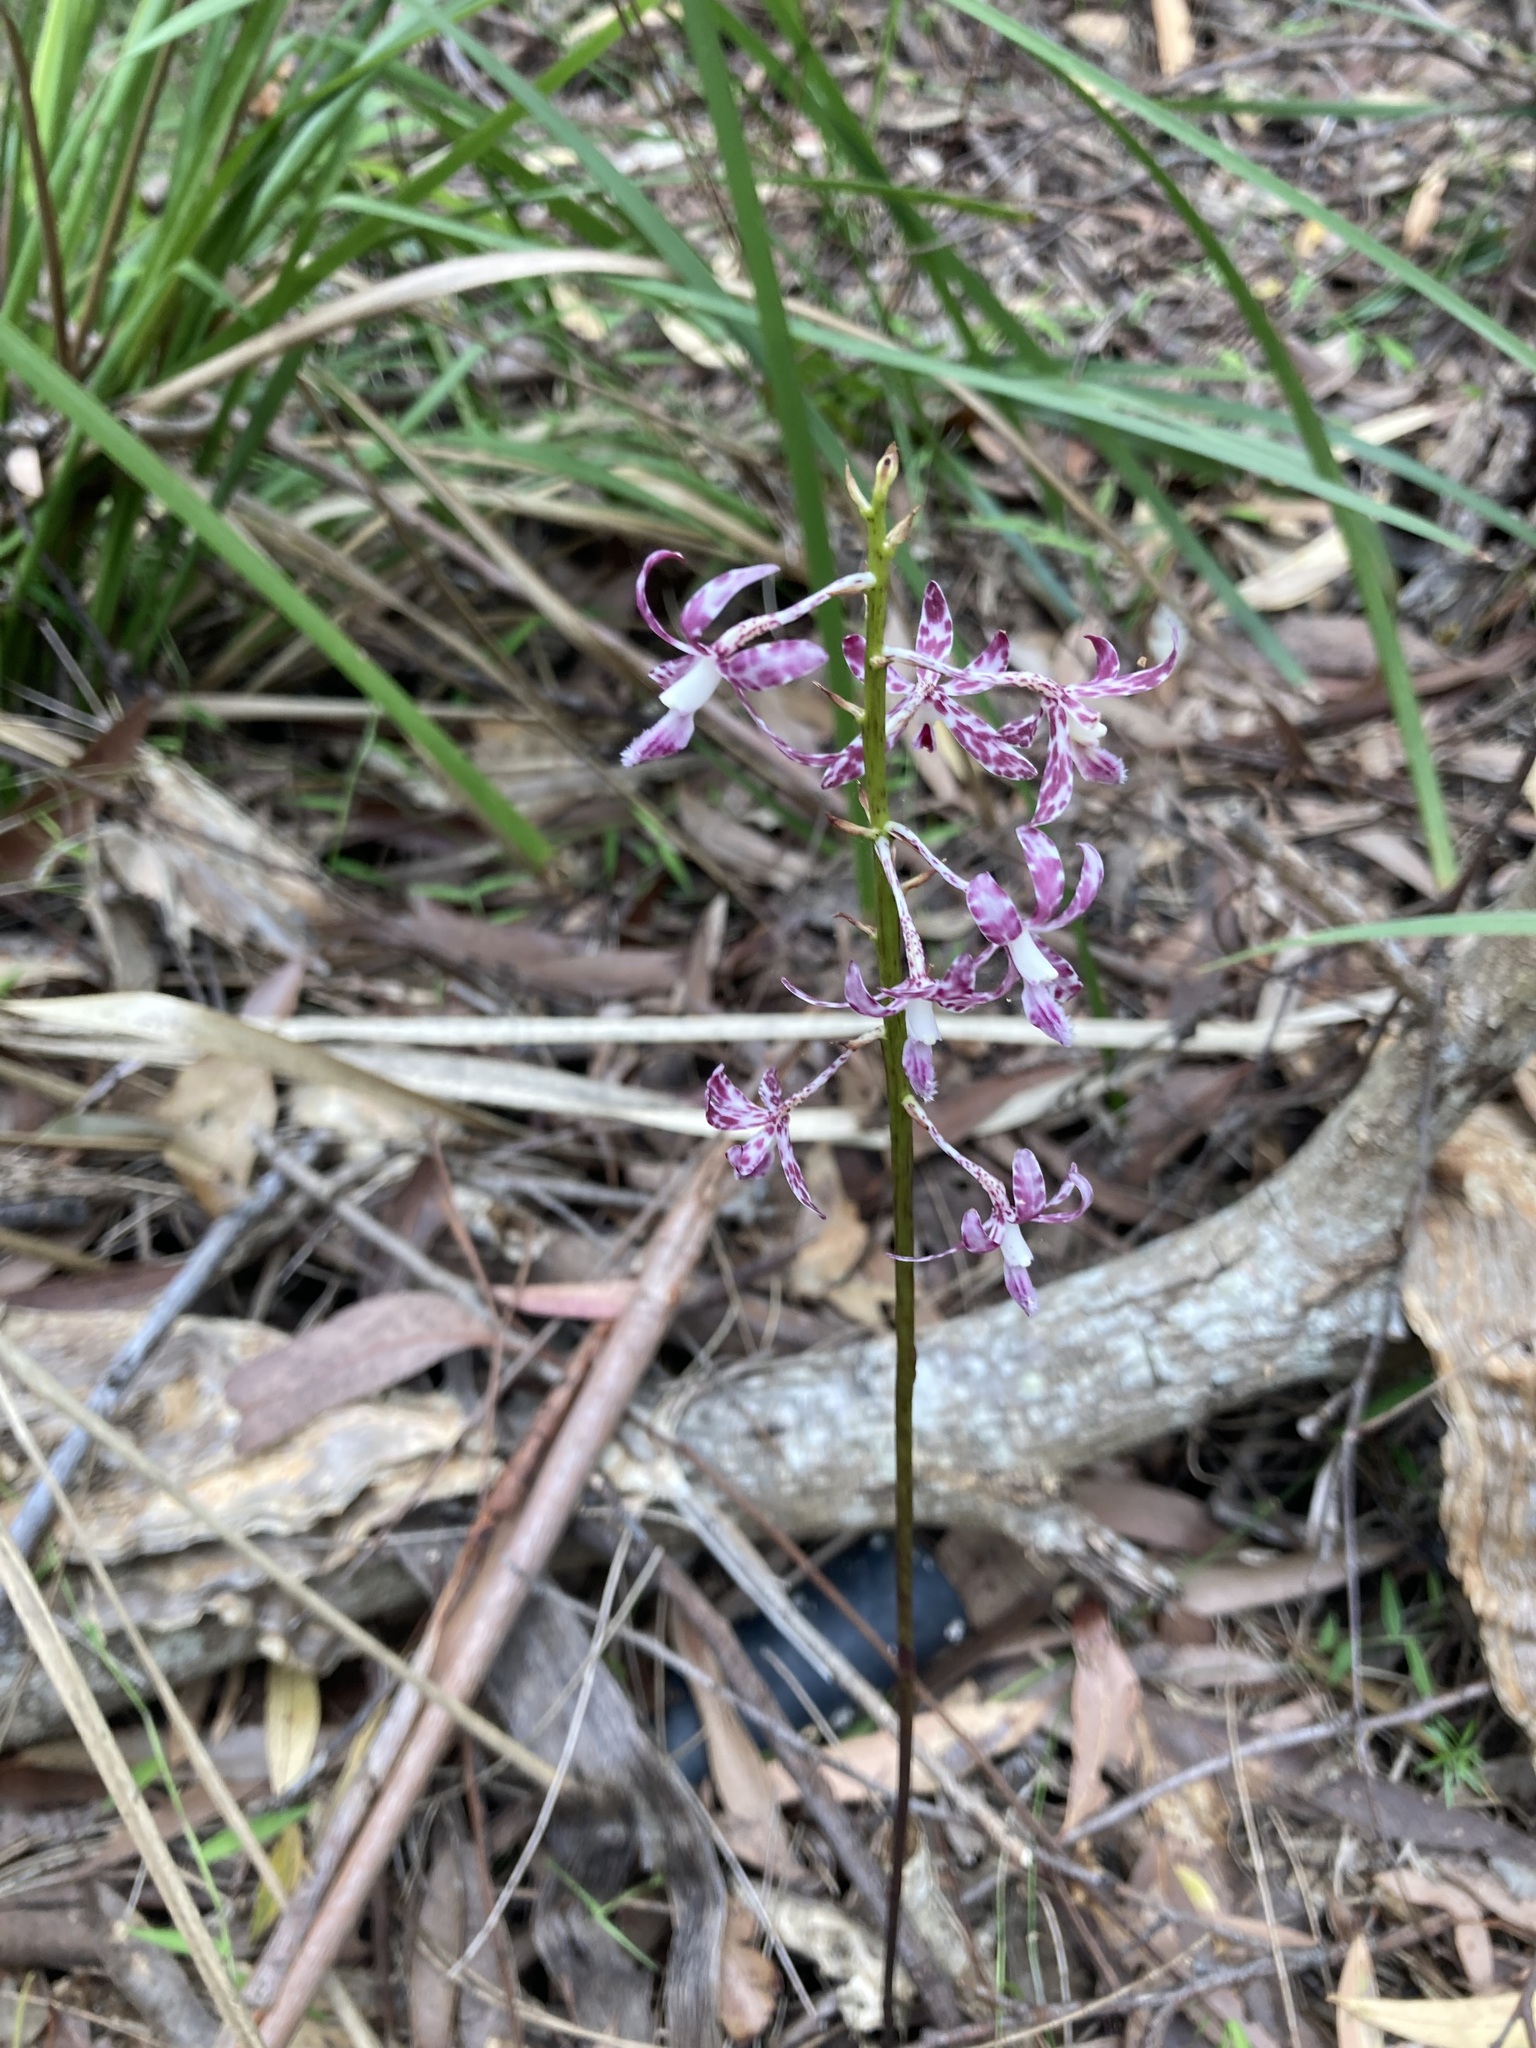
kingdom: Plantae
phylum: Tracheophyta
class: Liliopsida
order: Asparagales
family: Orchidaceae
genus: Dipodium
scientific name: Dipodium variegatum
